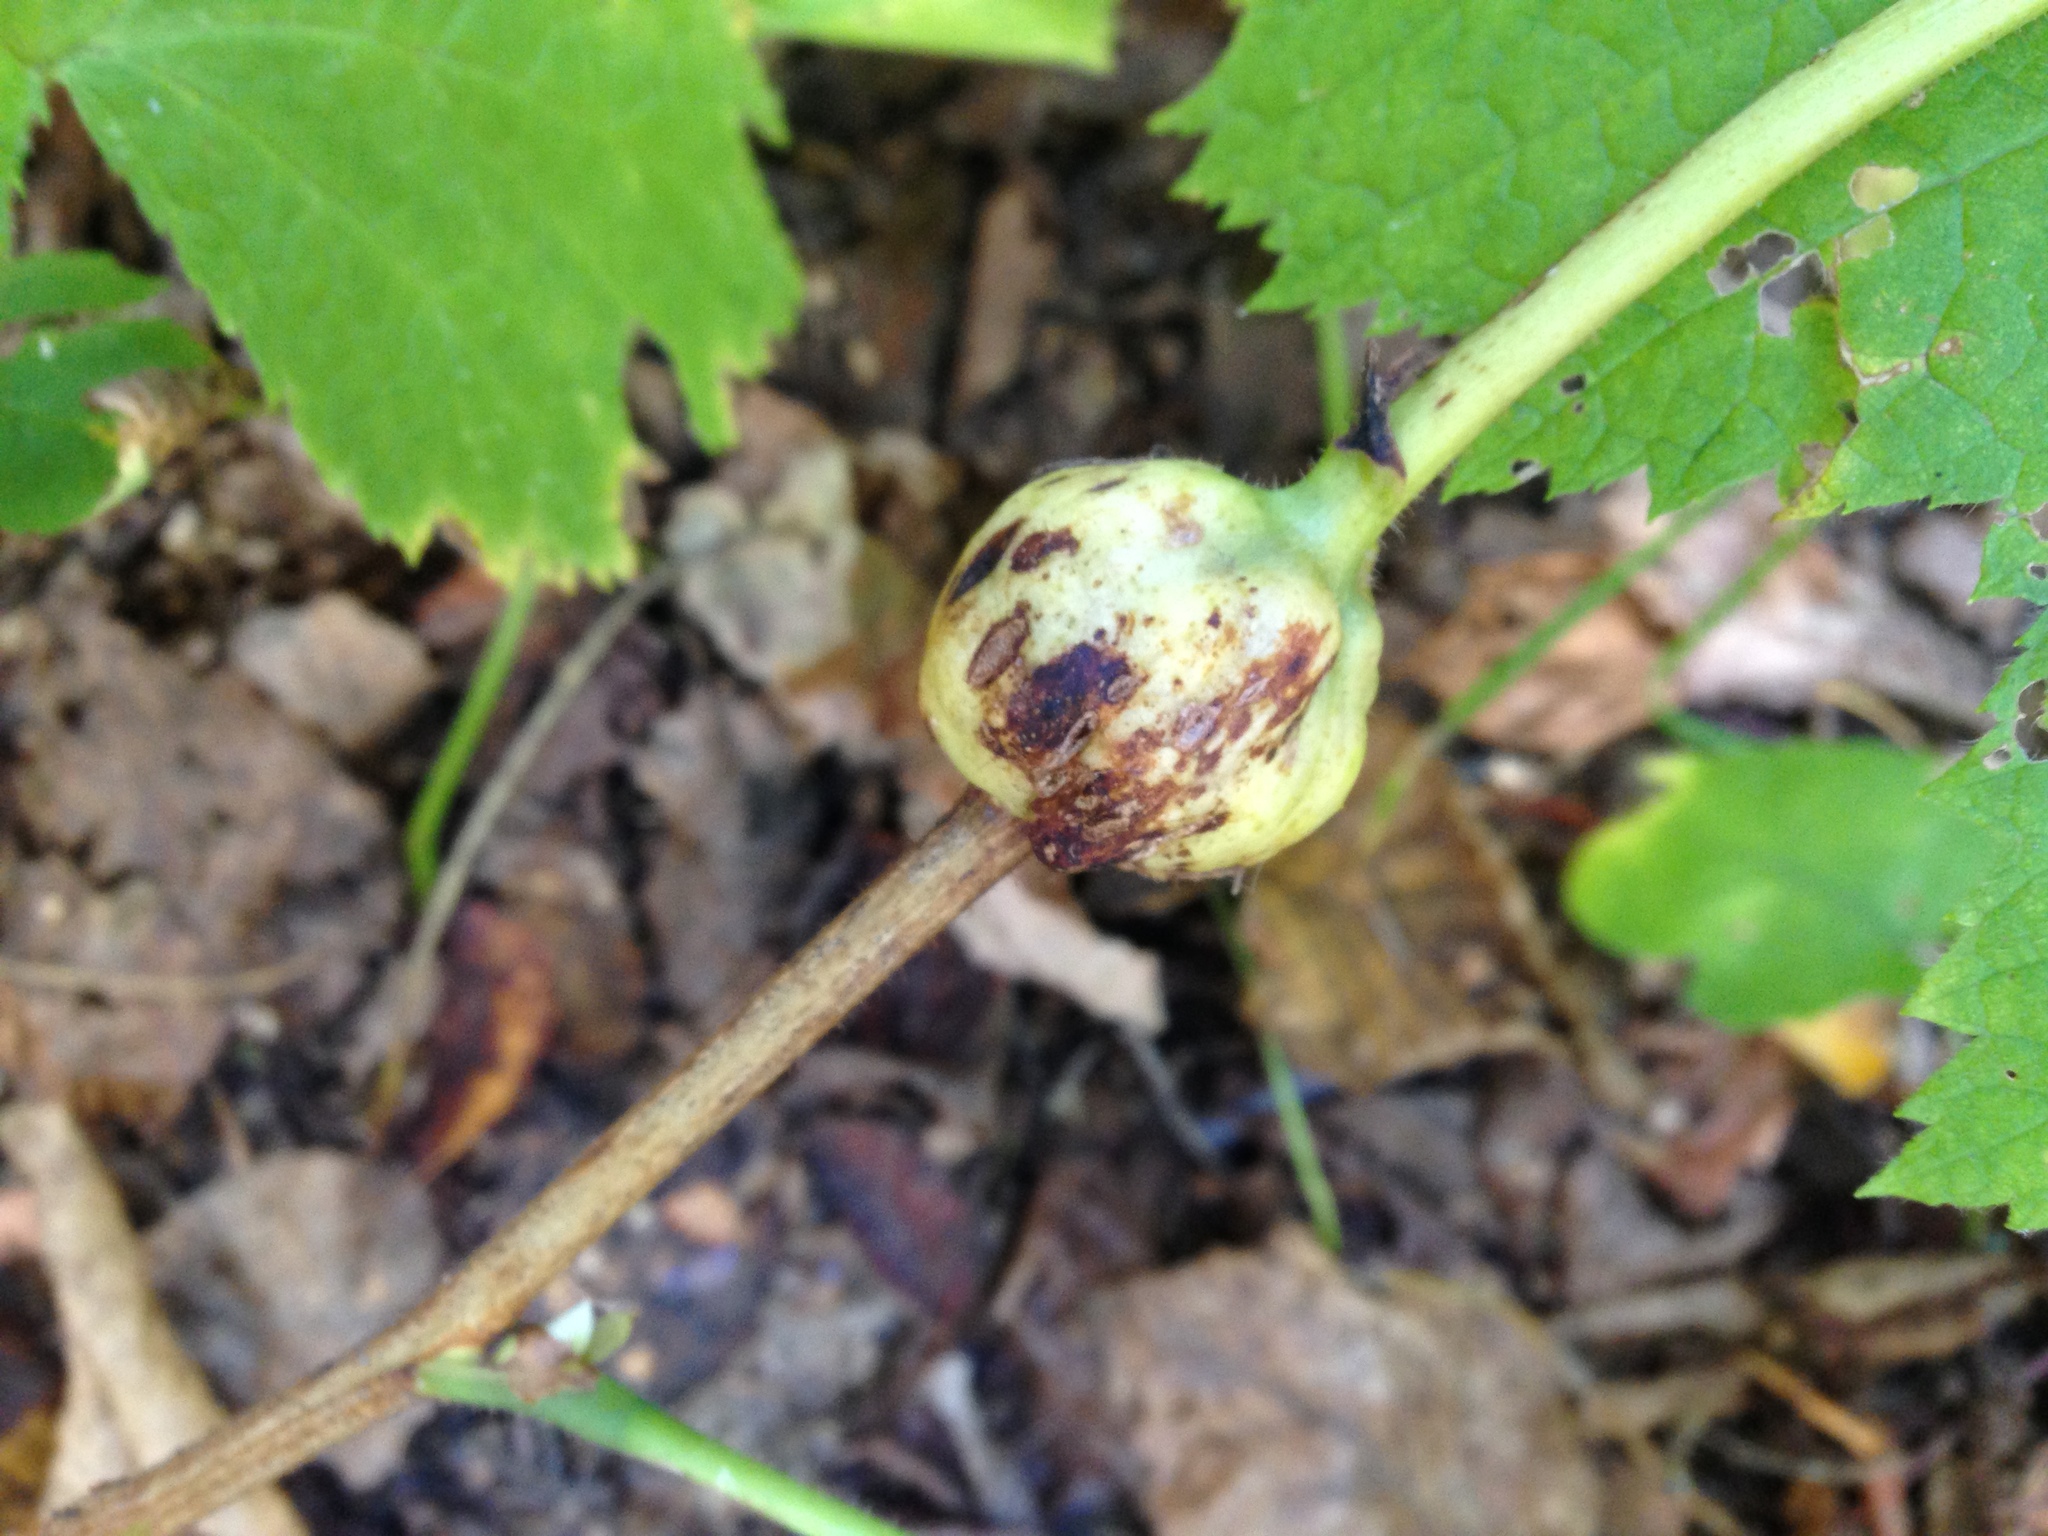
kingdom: Animalia
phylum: Arthropoda
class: Insecta
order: Hymenoptera
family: Cynipidae
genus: Diastrophus
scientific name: Diastrophus
